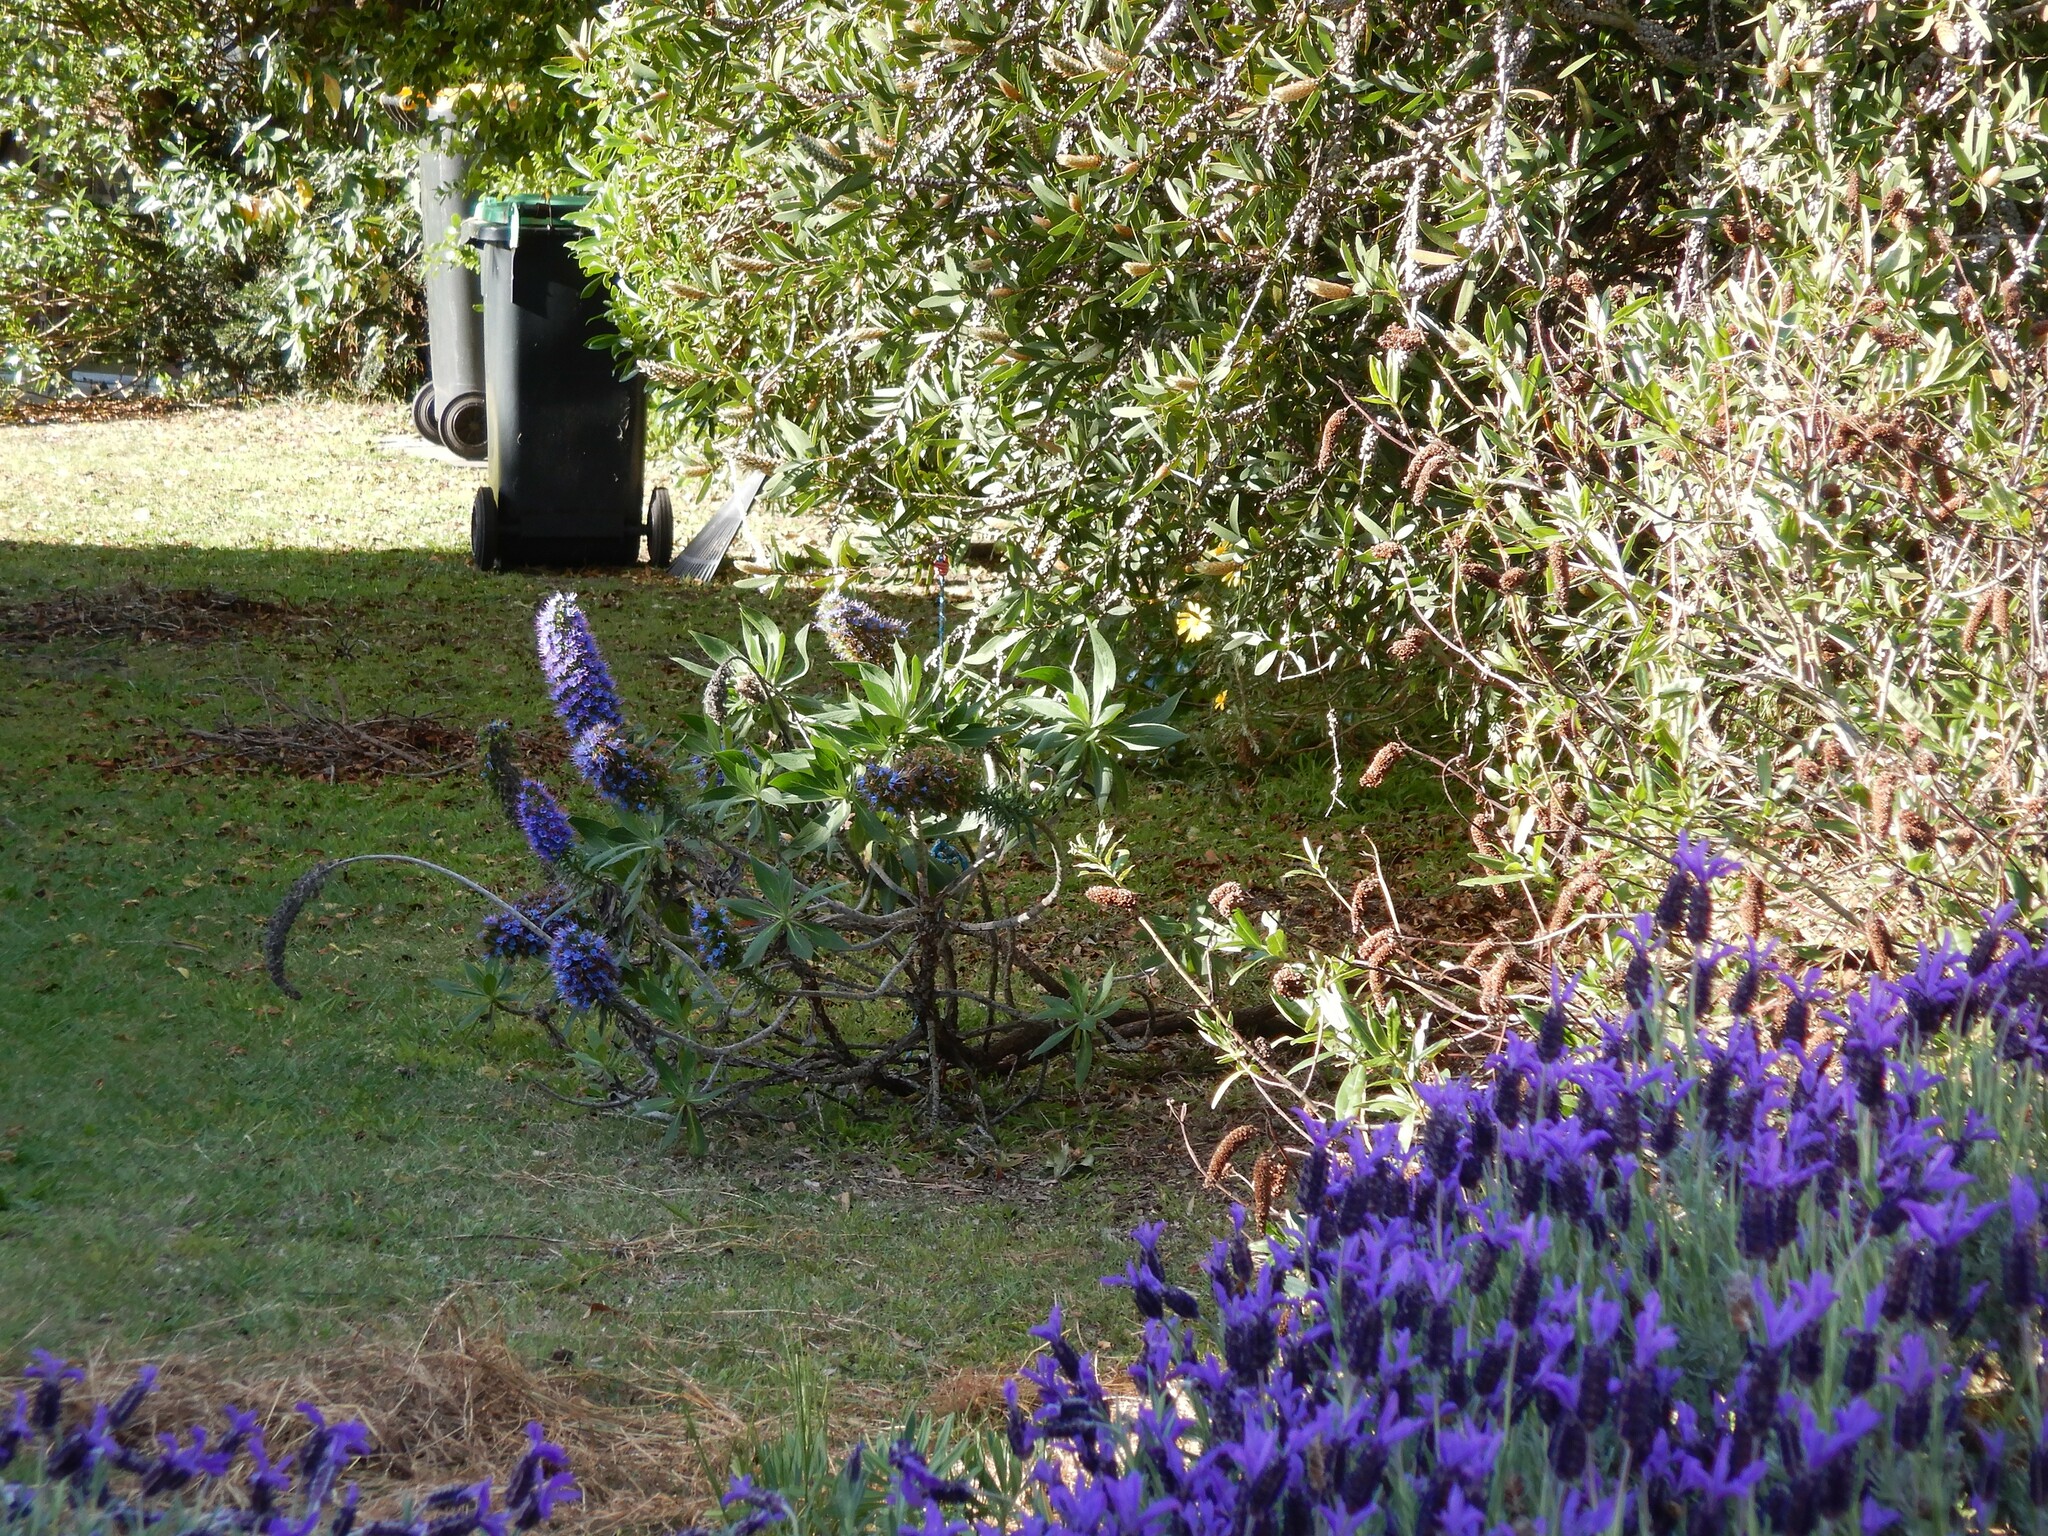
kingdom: Plantae
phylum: Tracheophyta
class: Magnoliopsida
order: Boraginales
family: Boraginaceae
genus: Echium
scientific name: Echium candicans
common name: Pride of madeira
